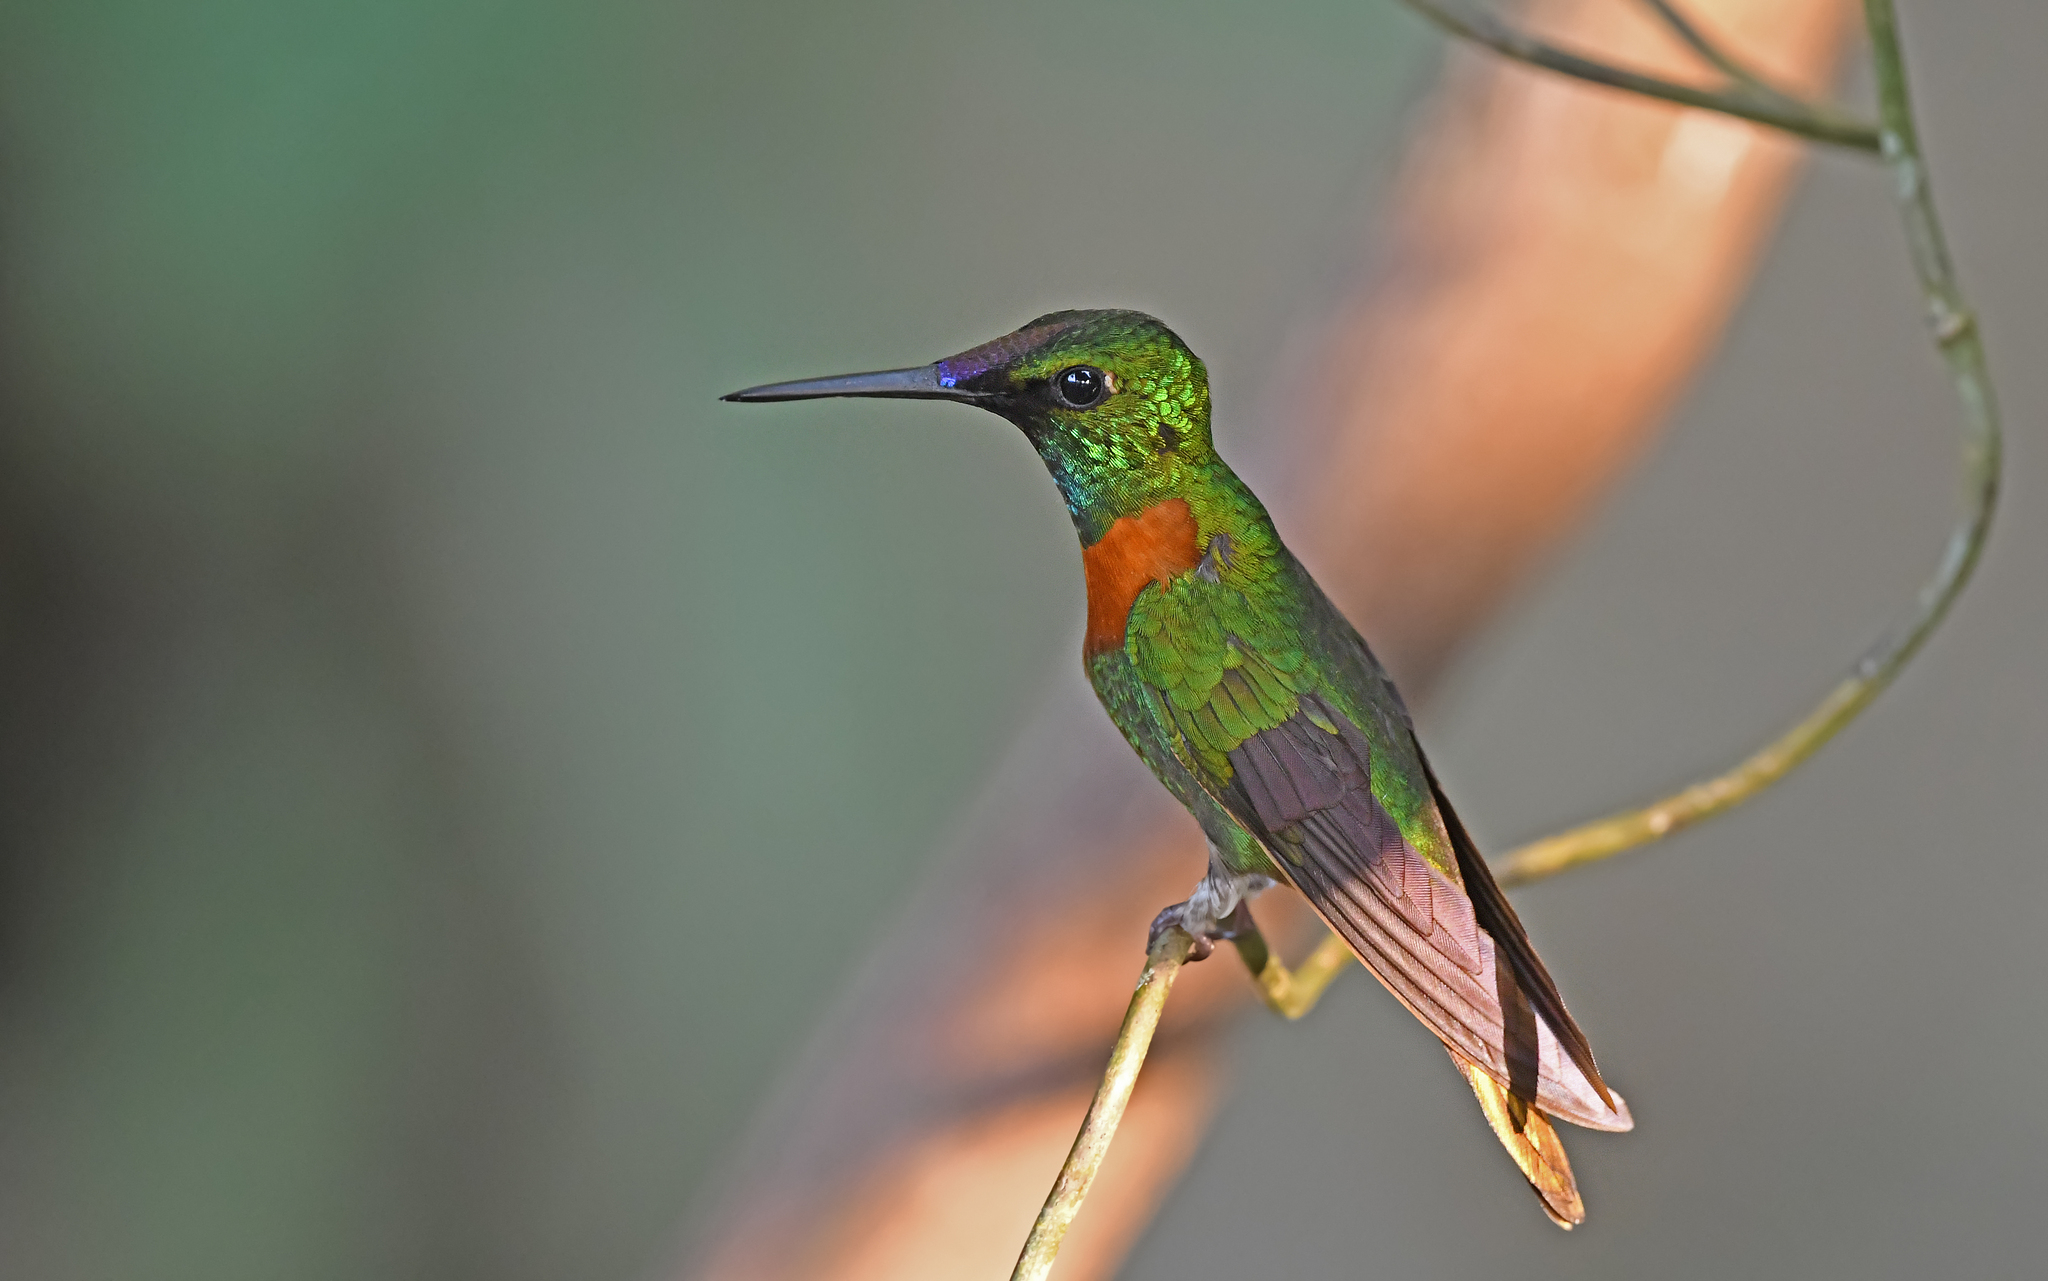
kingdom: Animalia
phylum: Chordata
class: Aves
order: Apodiformes
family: Trochilidae
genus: Heliodoxa
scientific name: Heliodoxa aurescens
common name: Gould's jewelfront
